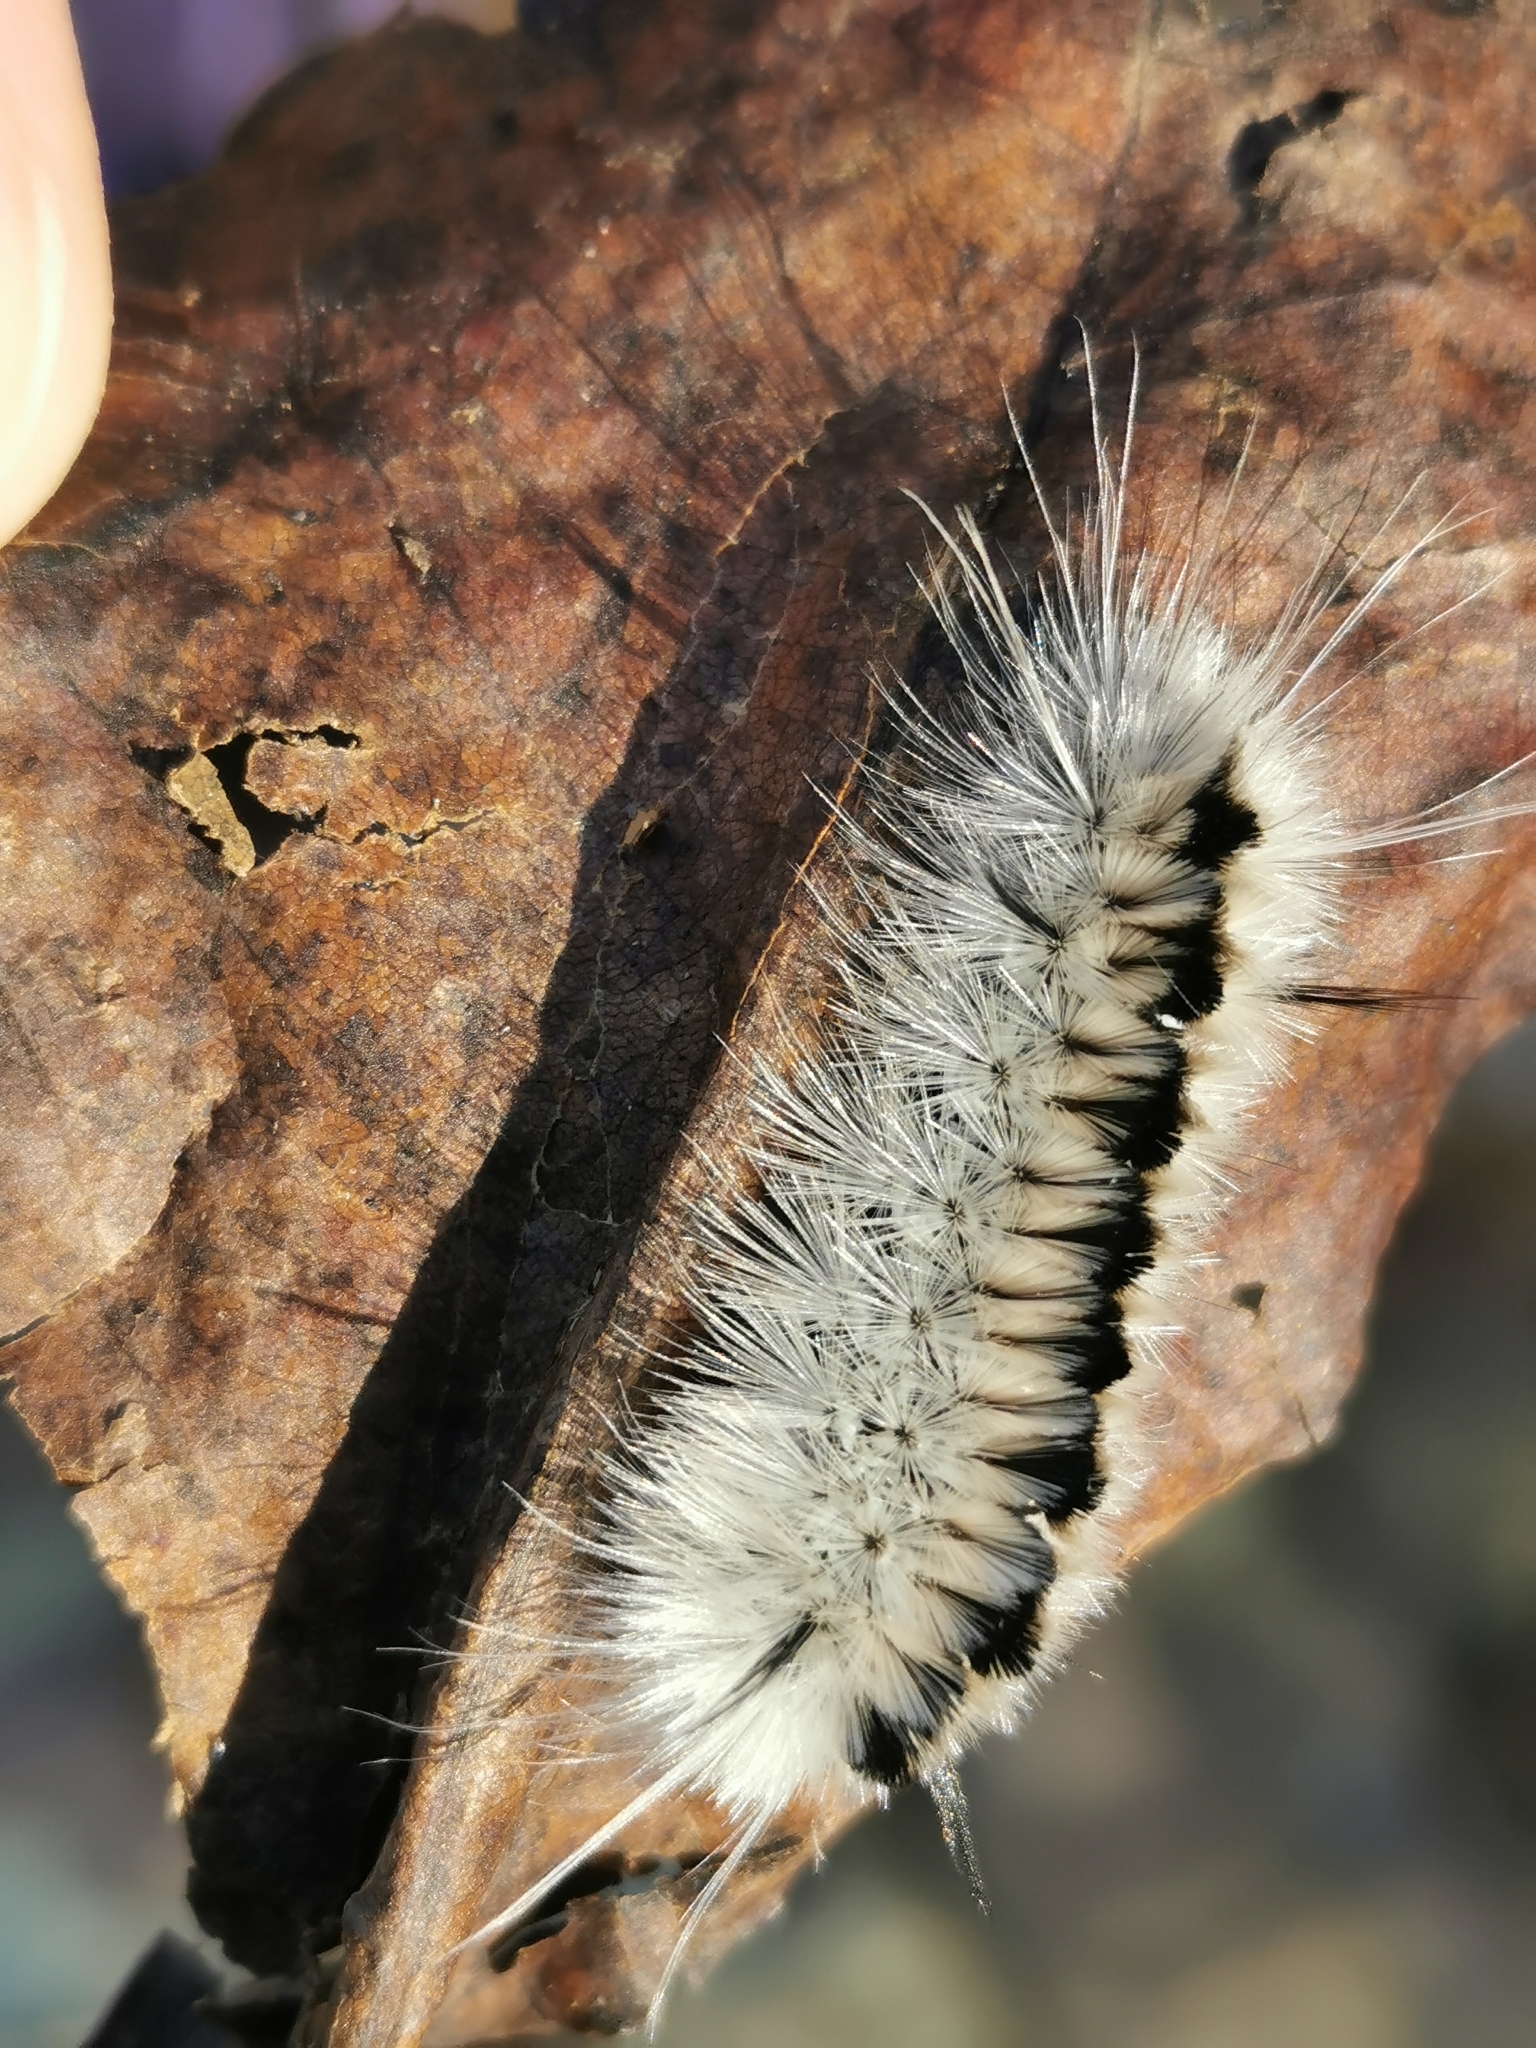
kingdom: Animalia
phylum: Arthropoda
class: Insecta
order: Lepidoptera
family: Erebidae
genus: Lophocampa
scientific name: Lophocampa caryae
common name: Hickory tussock moth
